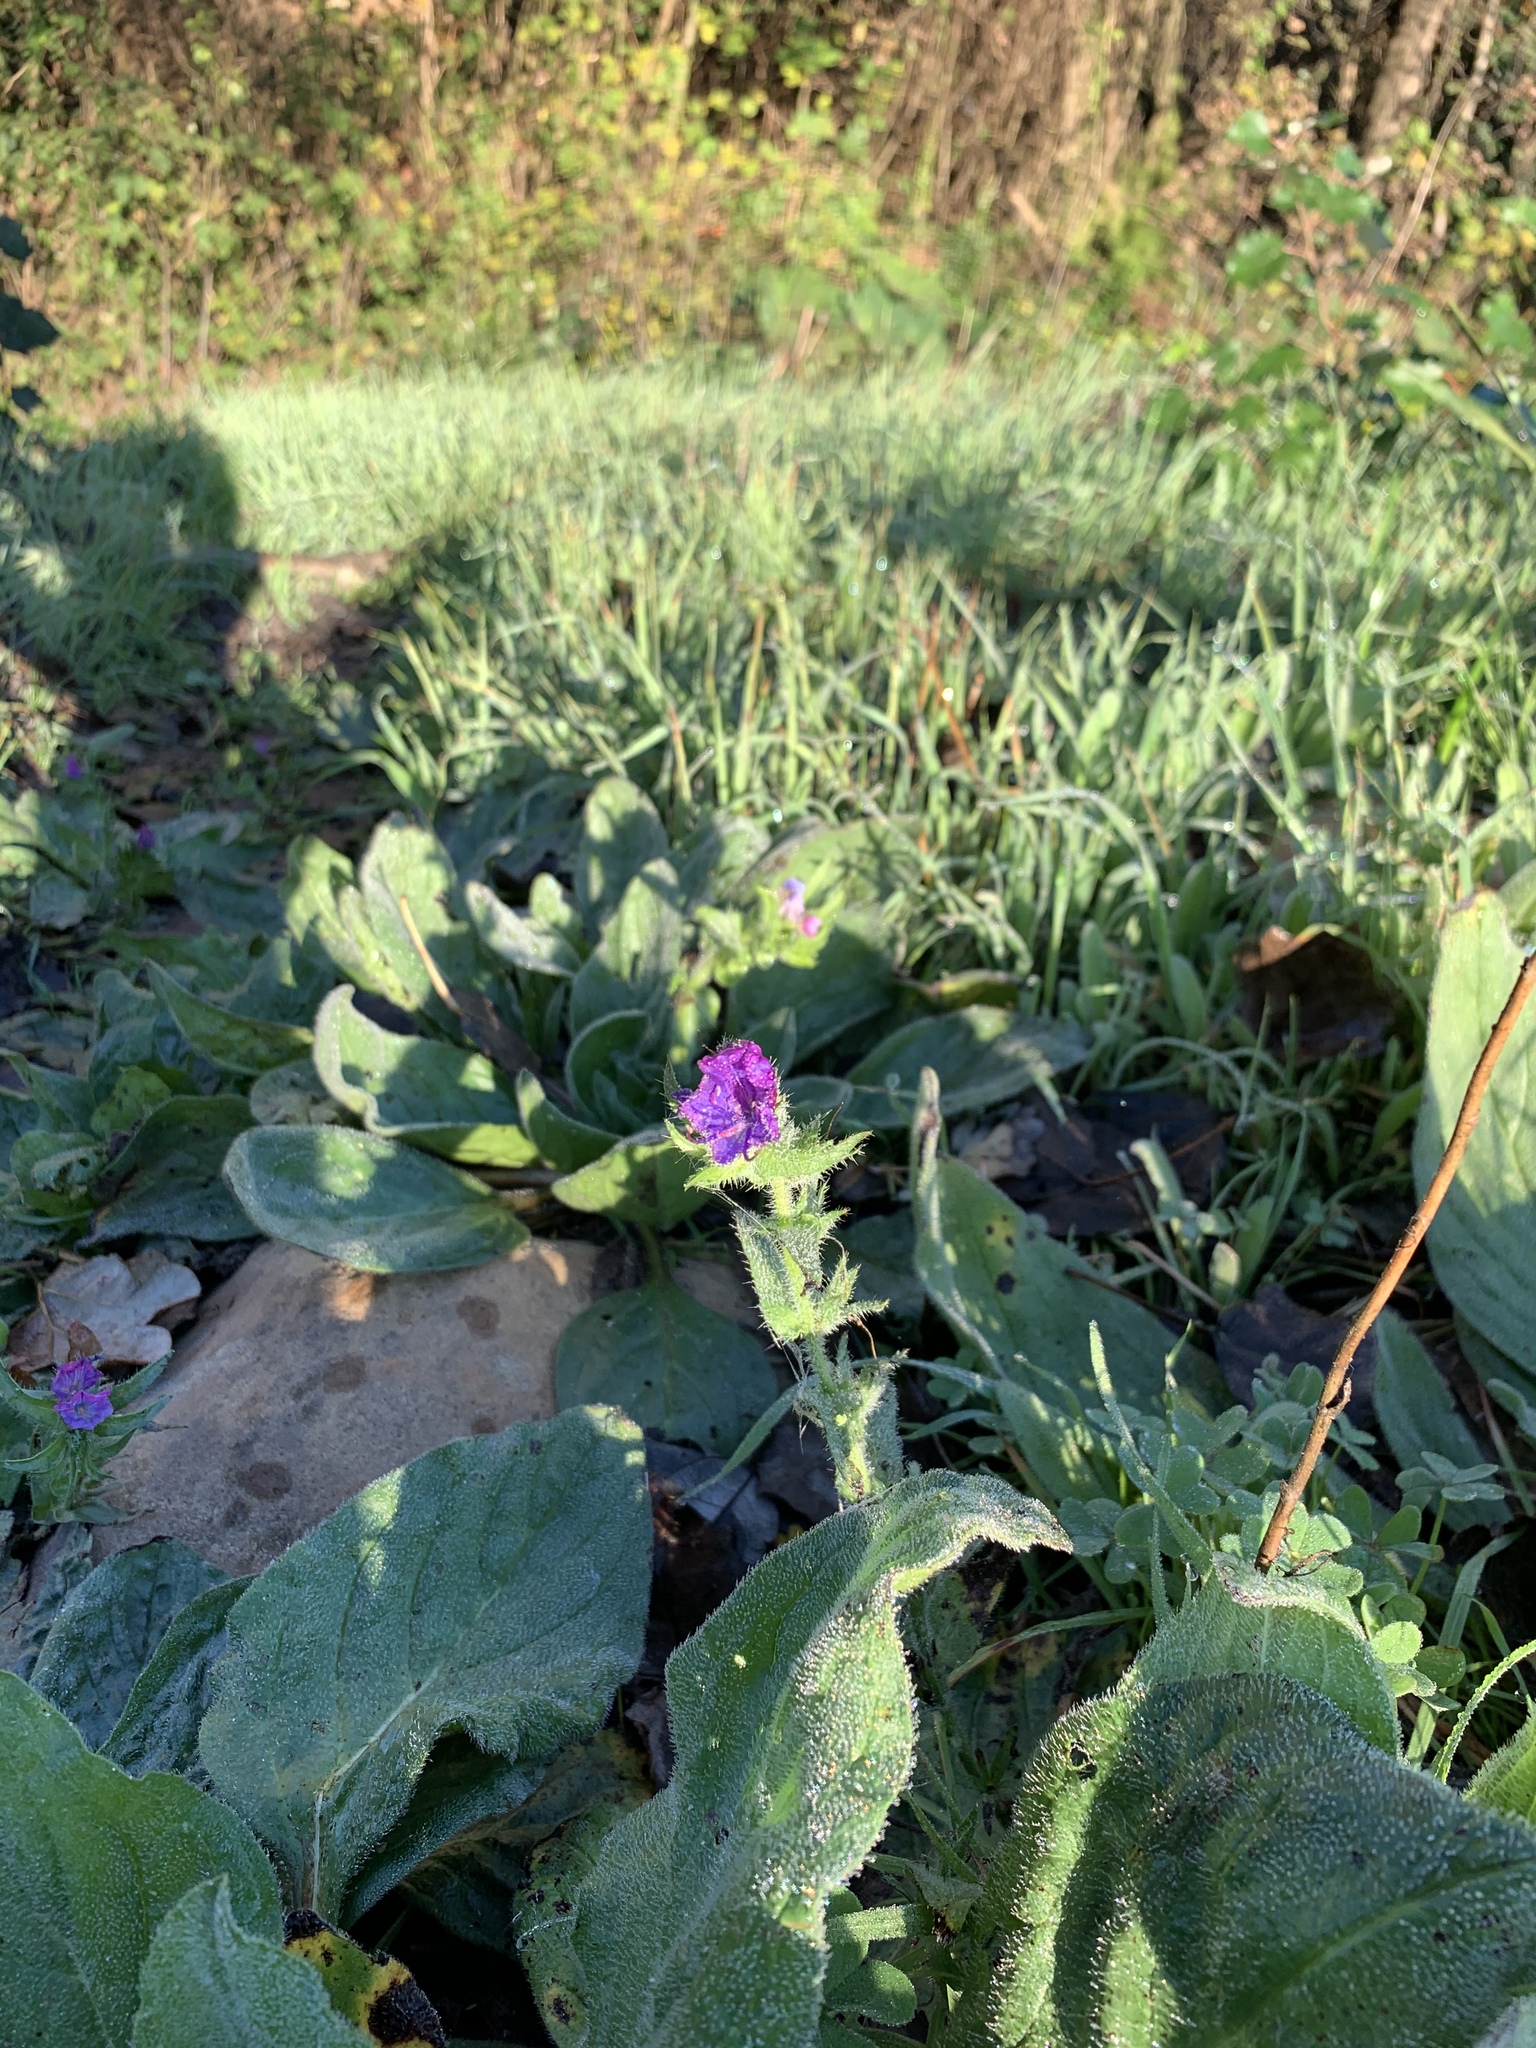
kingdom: Plantae
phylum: Tracheophyta
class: Magnoliopsida
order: Boraginales
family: Boraginaceae
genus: Echium
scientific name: Echium plantagineum
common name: Purple viper's-bugloss
